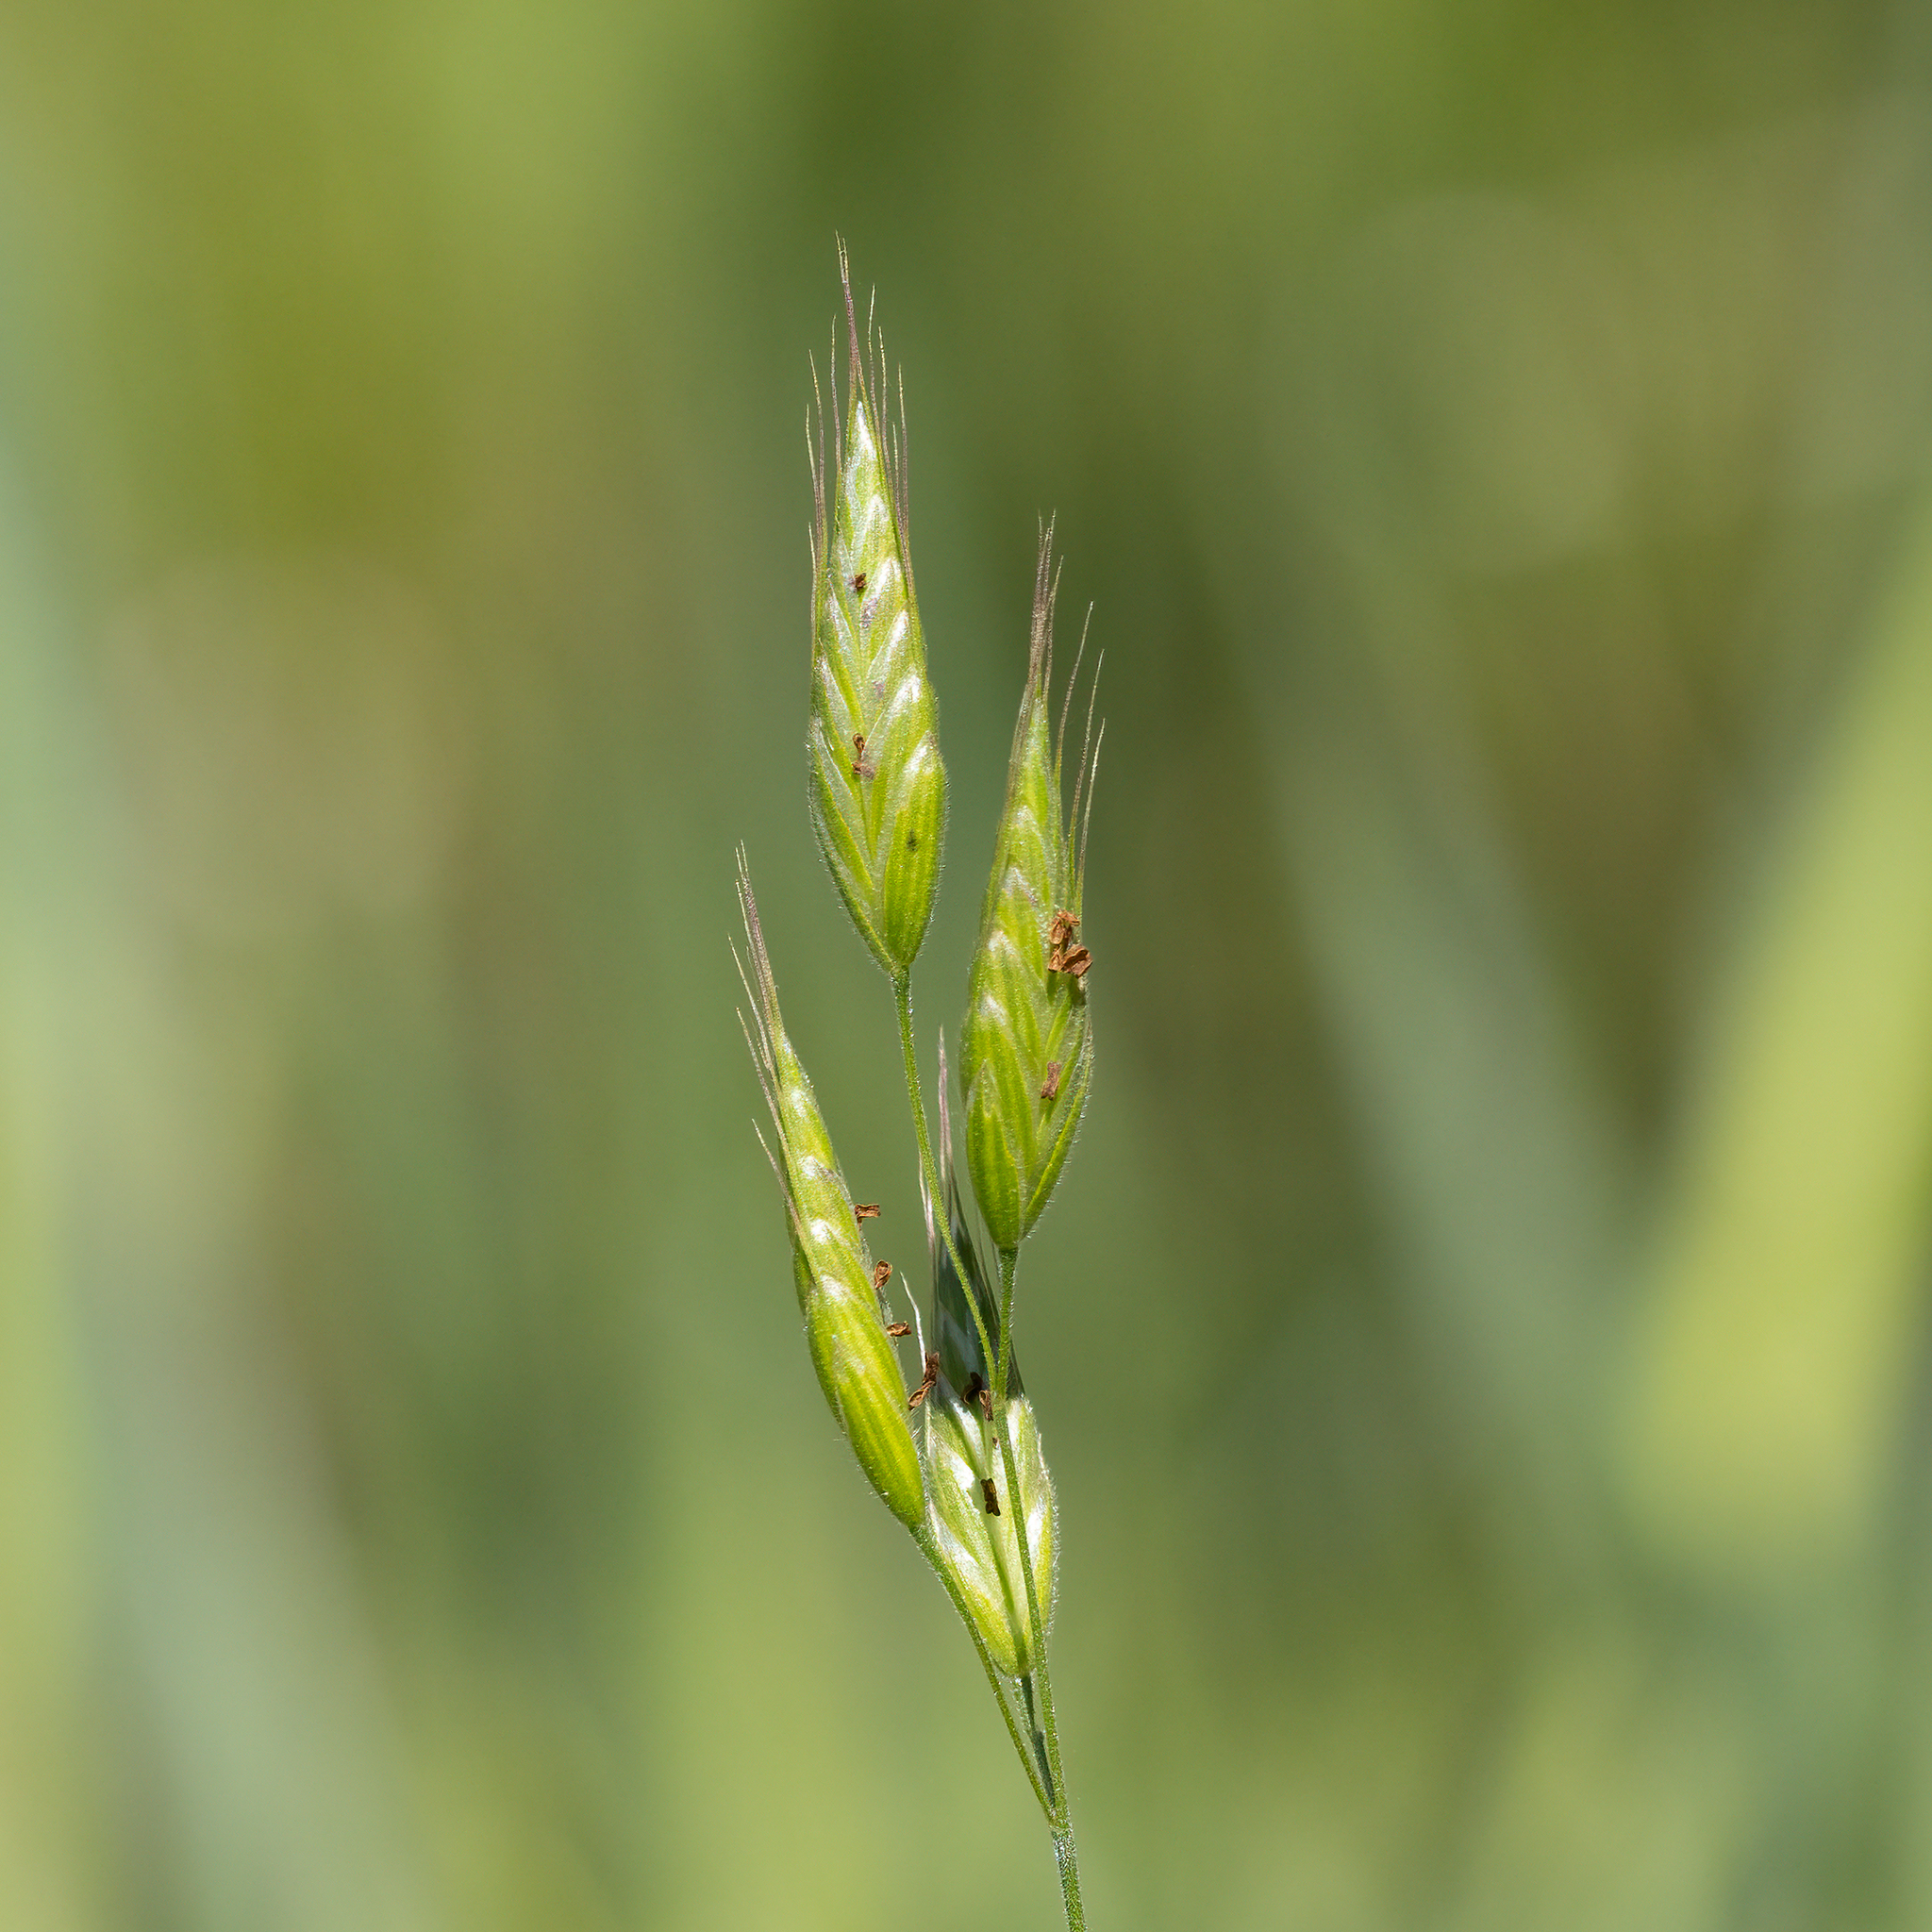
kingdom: Plantae
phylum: Tracheophyta
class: Liliopsida
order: Poales
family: Poaceae
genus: Bromus
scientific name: Bromus hordeaceus
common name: Soft brome
